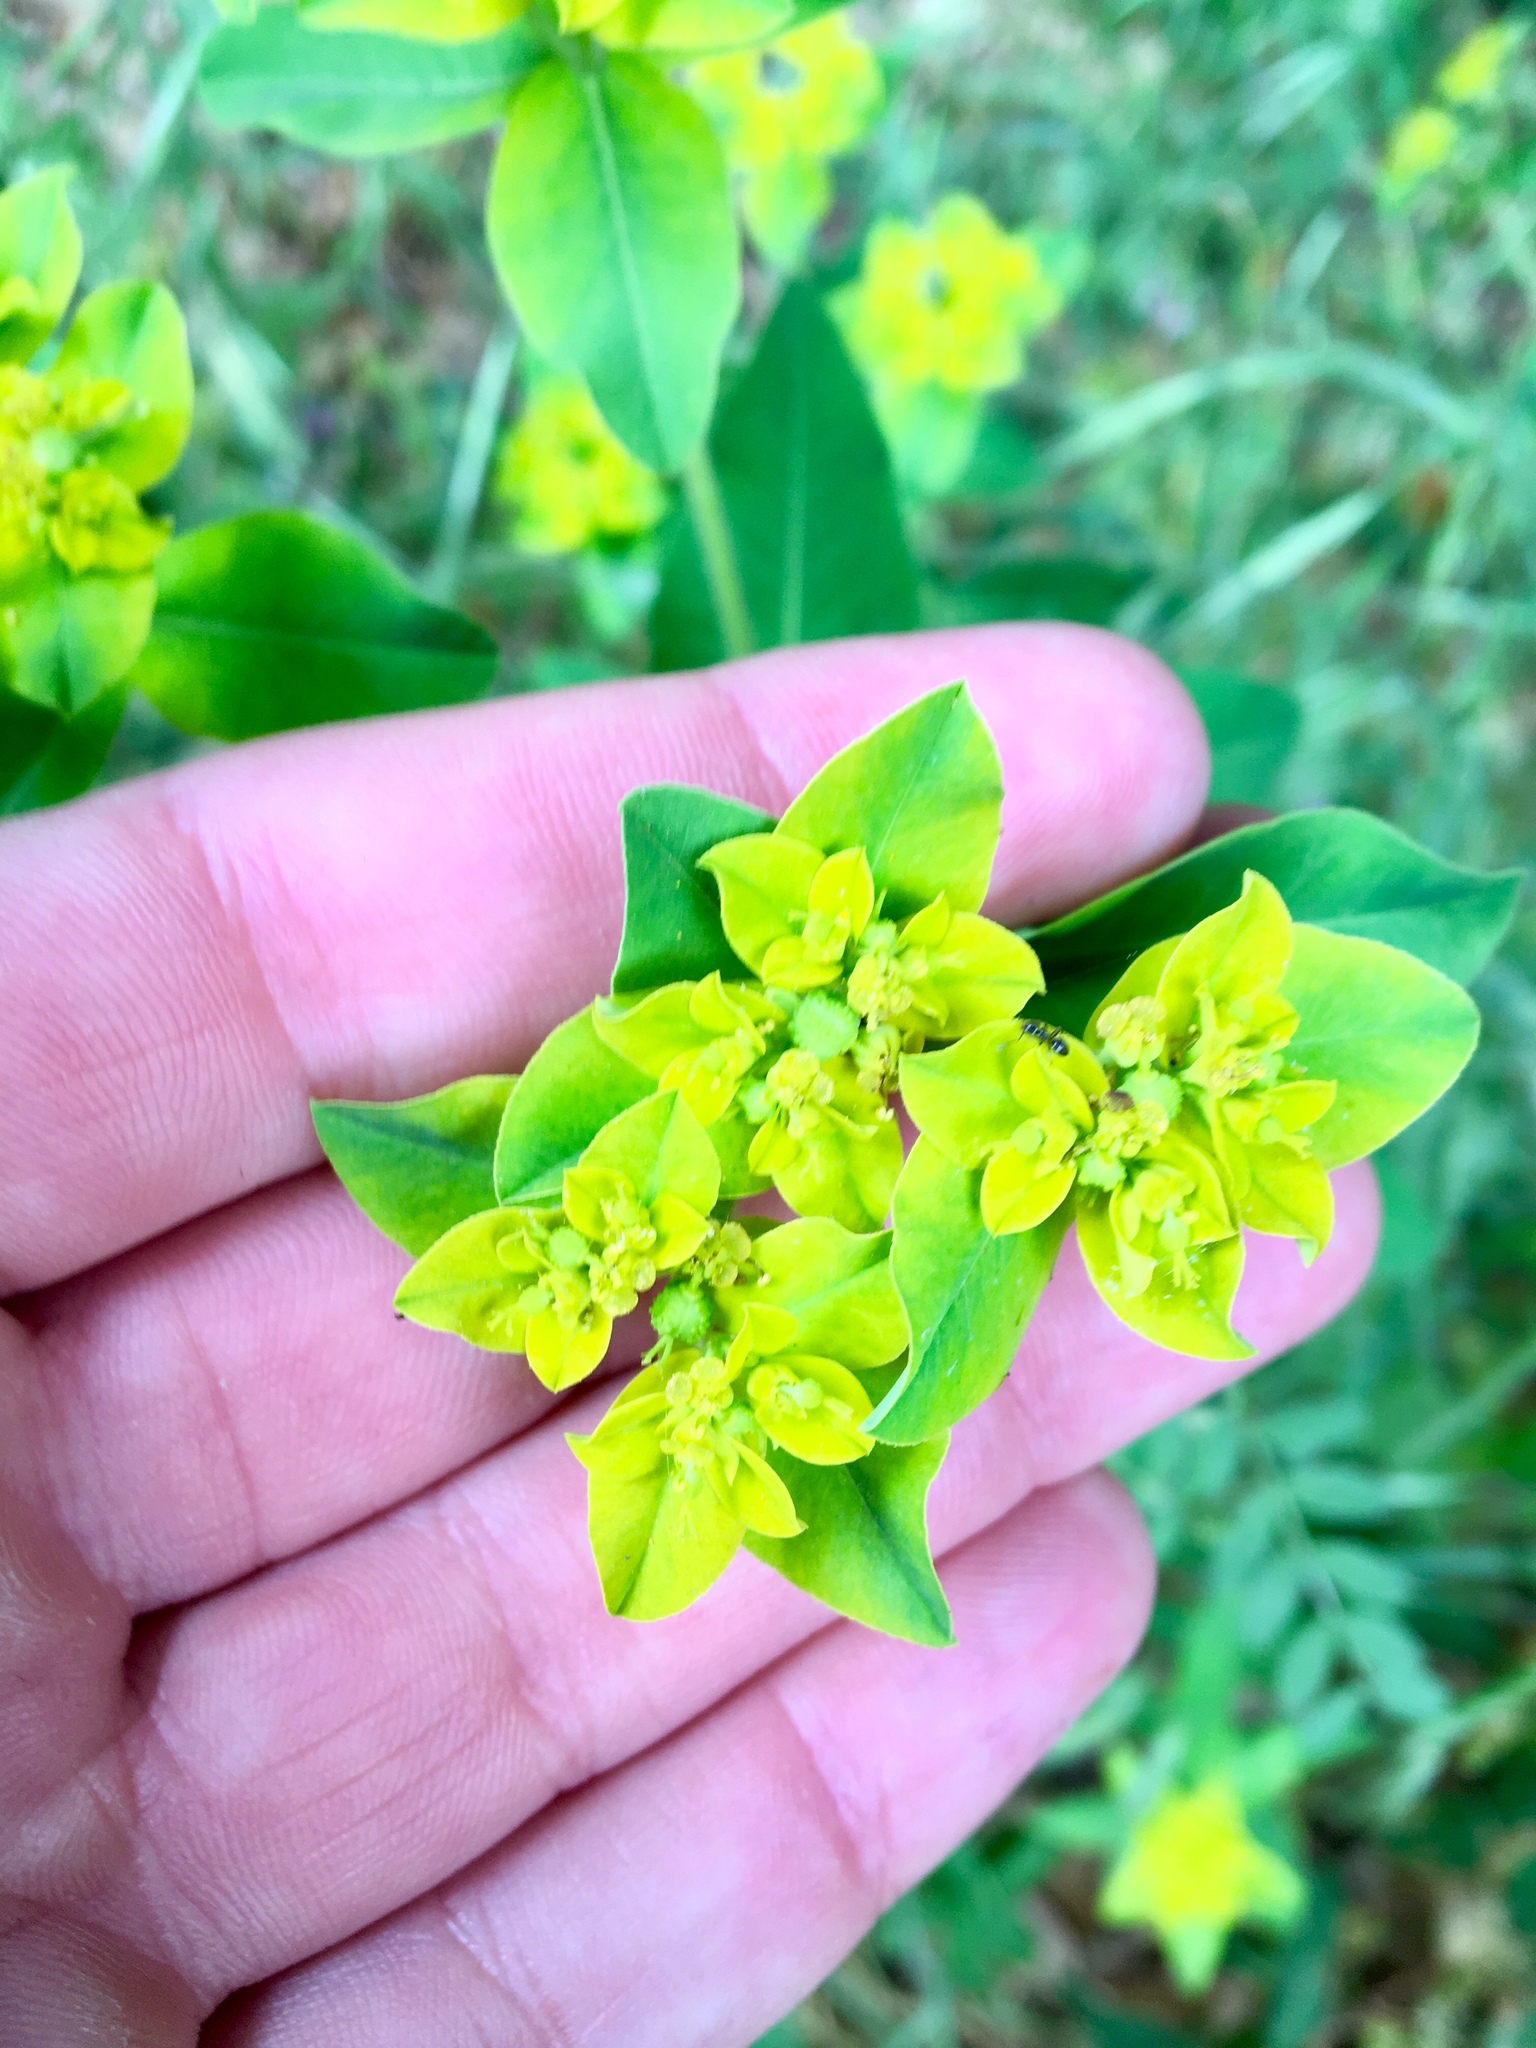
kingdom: Plantae
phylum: Tracheophyta
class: Magnoliopsida
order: Malpighiales
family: Euphorbiaceae
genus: Euphorbia
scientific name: Euphorbia oblongata
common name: Balkan spurge
